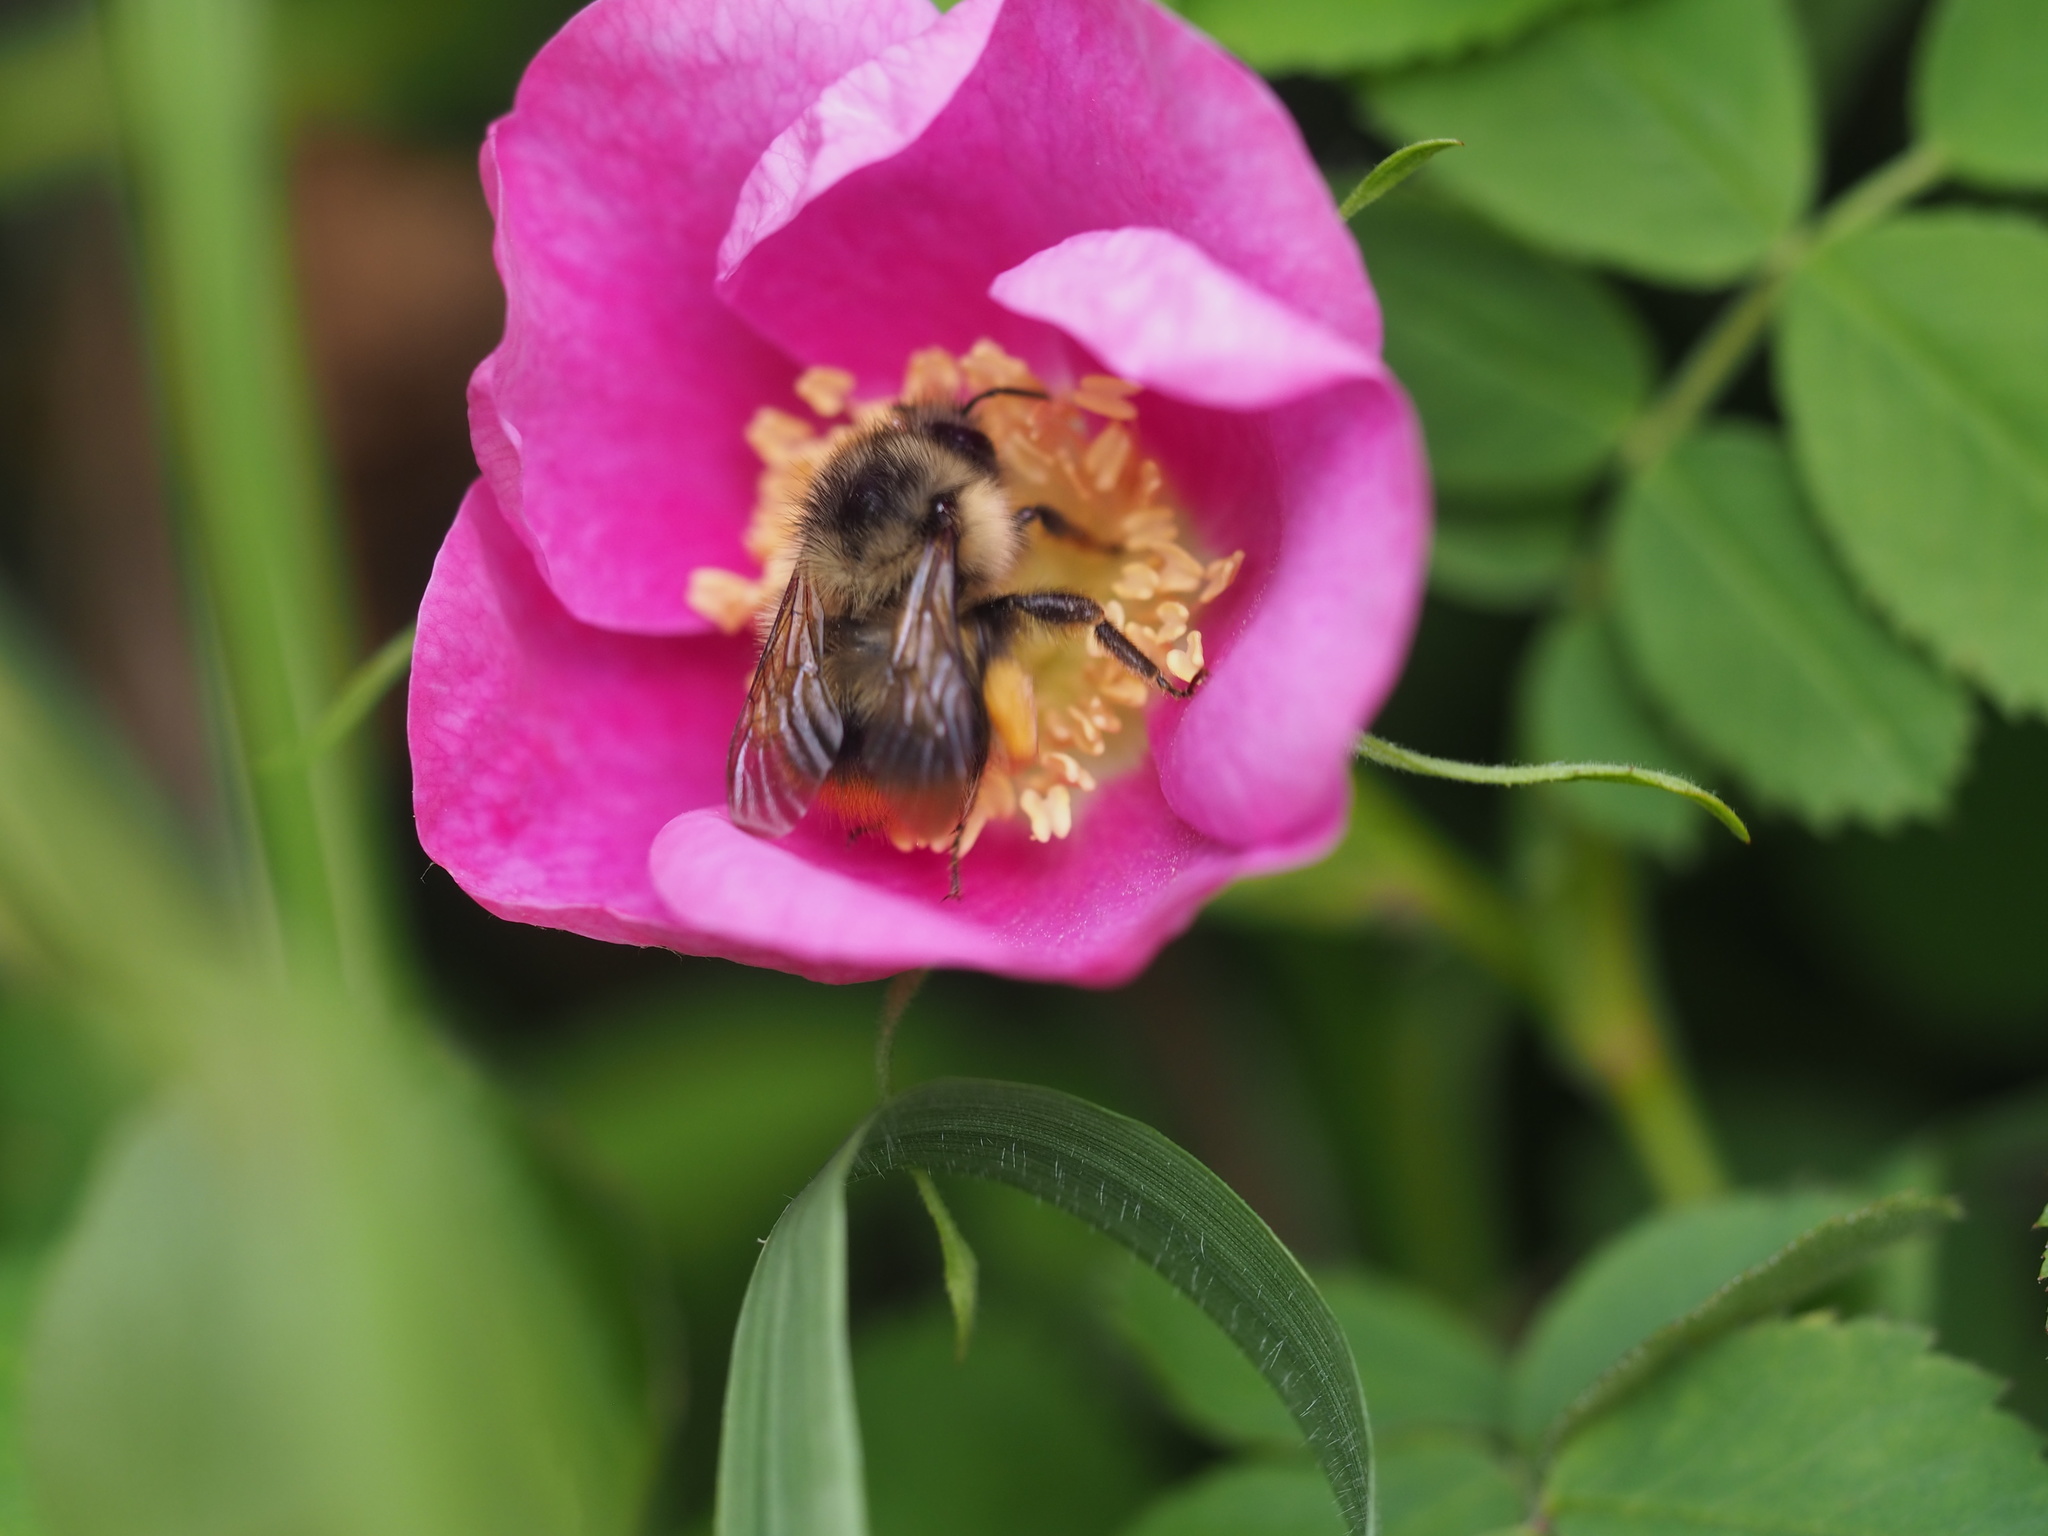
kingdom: Animalia
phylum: Arthropoda
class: Insecta
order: Hymenoptera
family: Apidae
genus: Bombus
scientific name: Bombus mixtus
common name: Fuzzy-horned bumble bee
